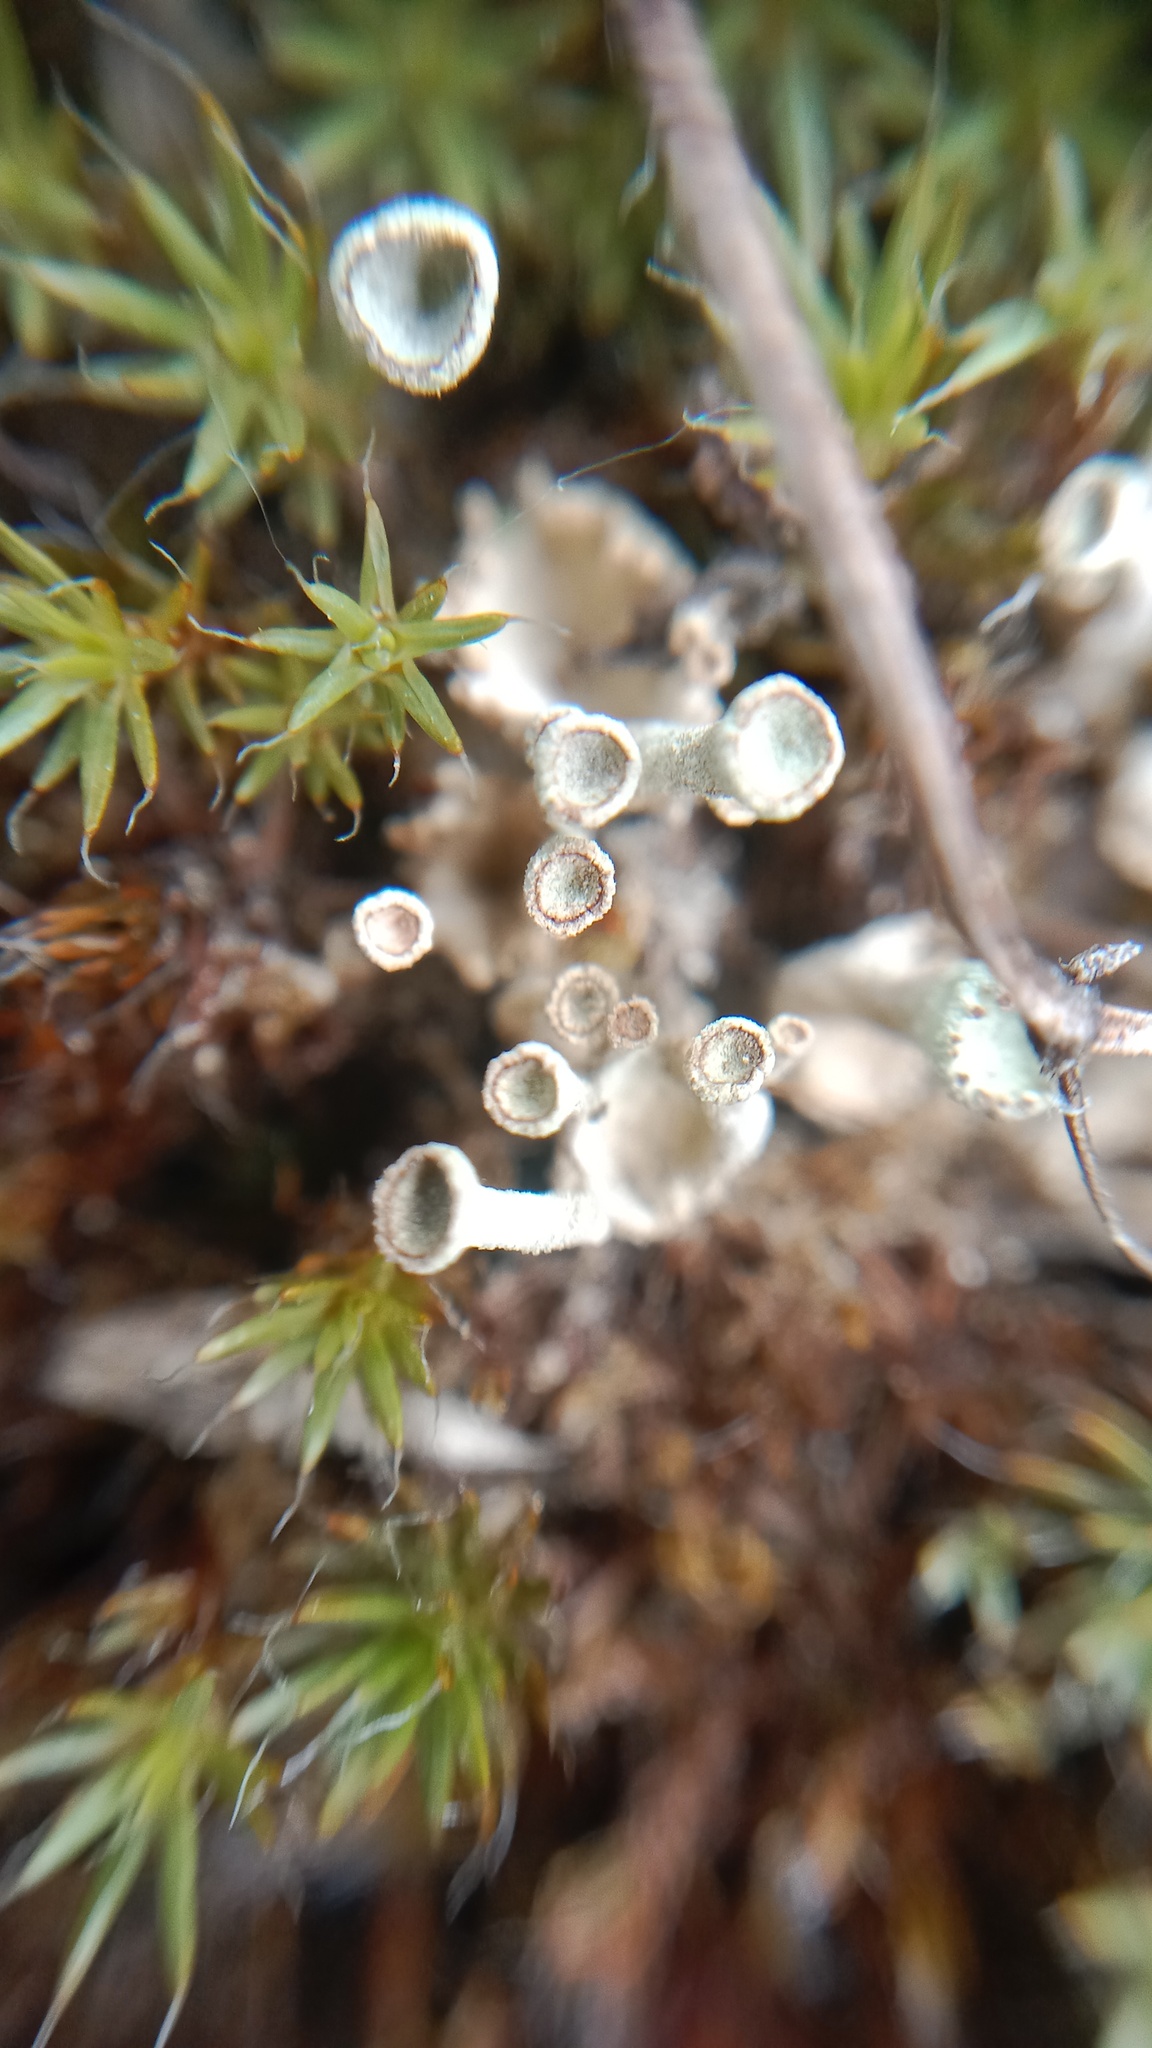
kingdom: Plantae
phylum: Bryophyta
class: Polytrichopsida
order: Polytrichales
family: Polytrichaceae
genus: Polytrichum
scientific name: Polytrichum piliferum
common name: Bristly haircap
